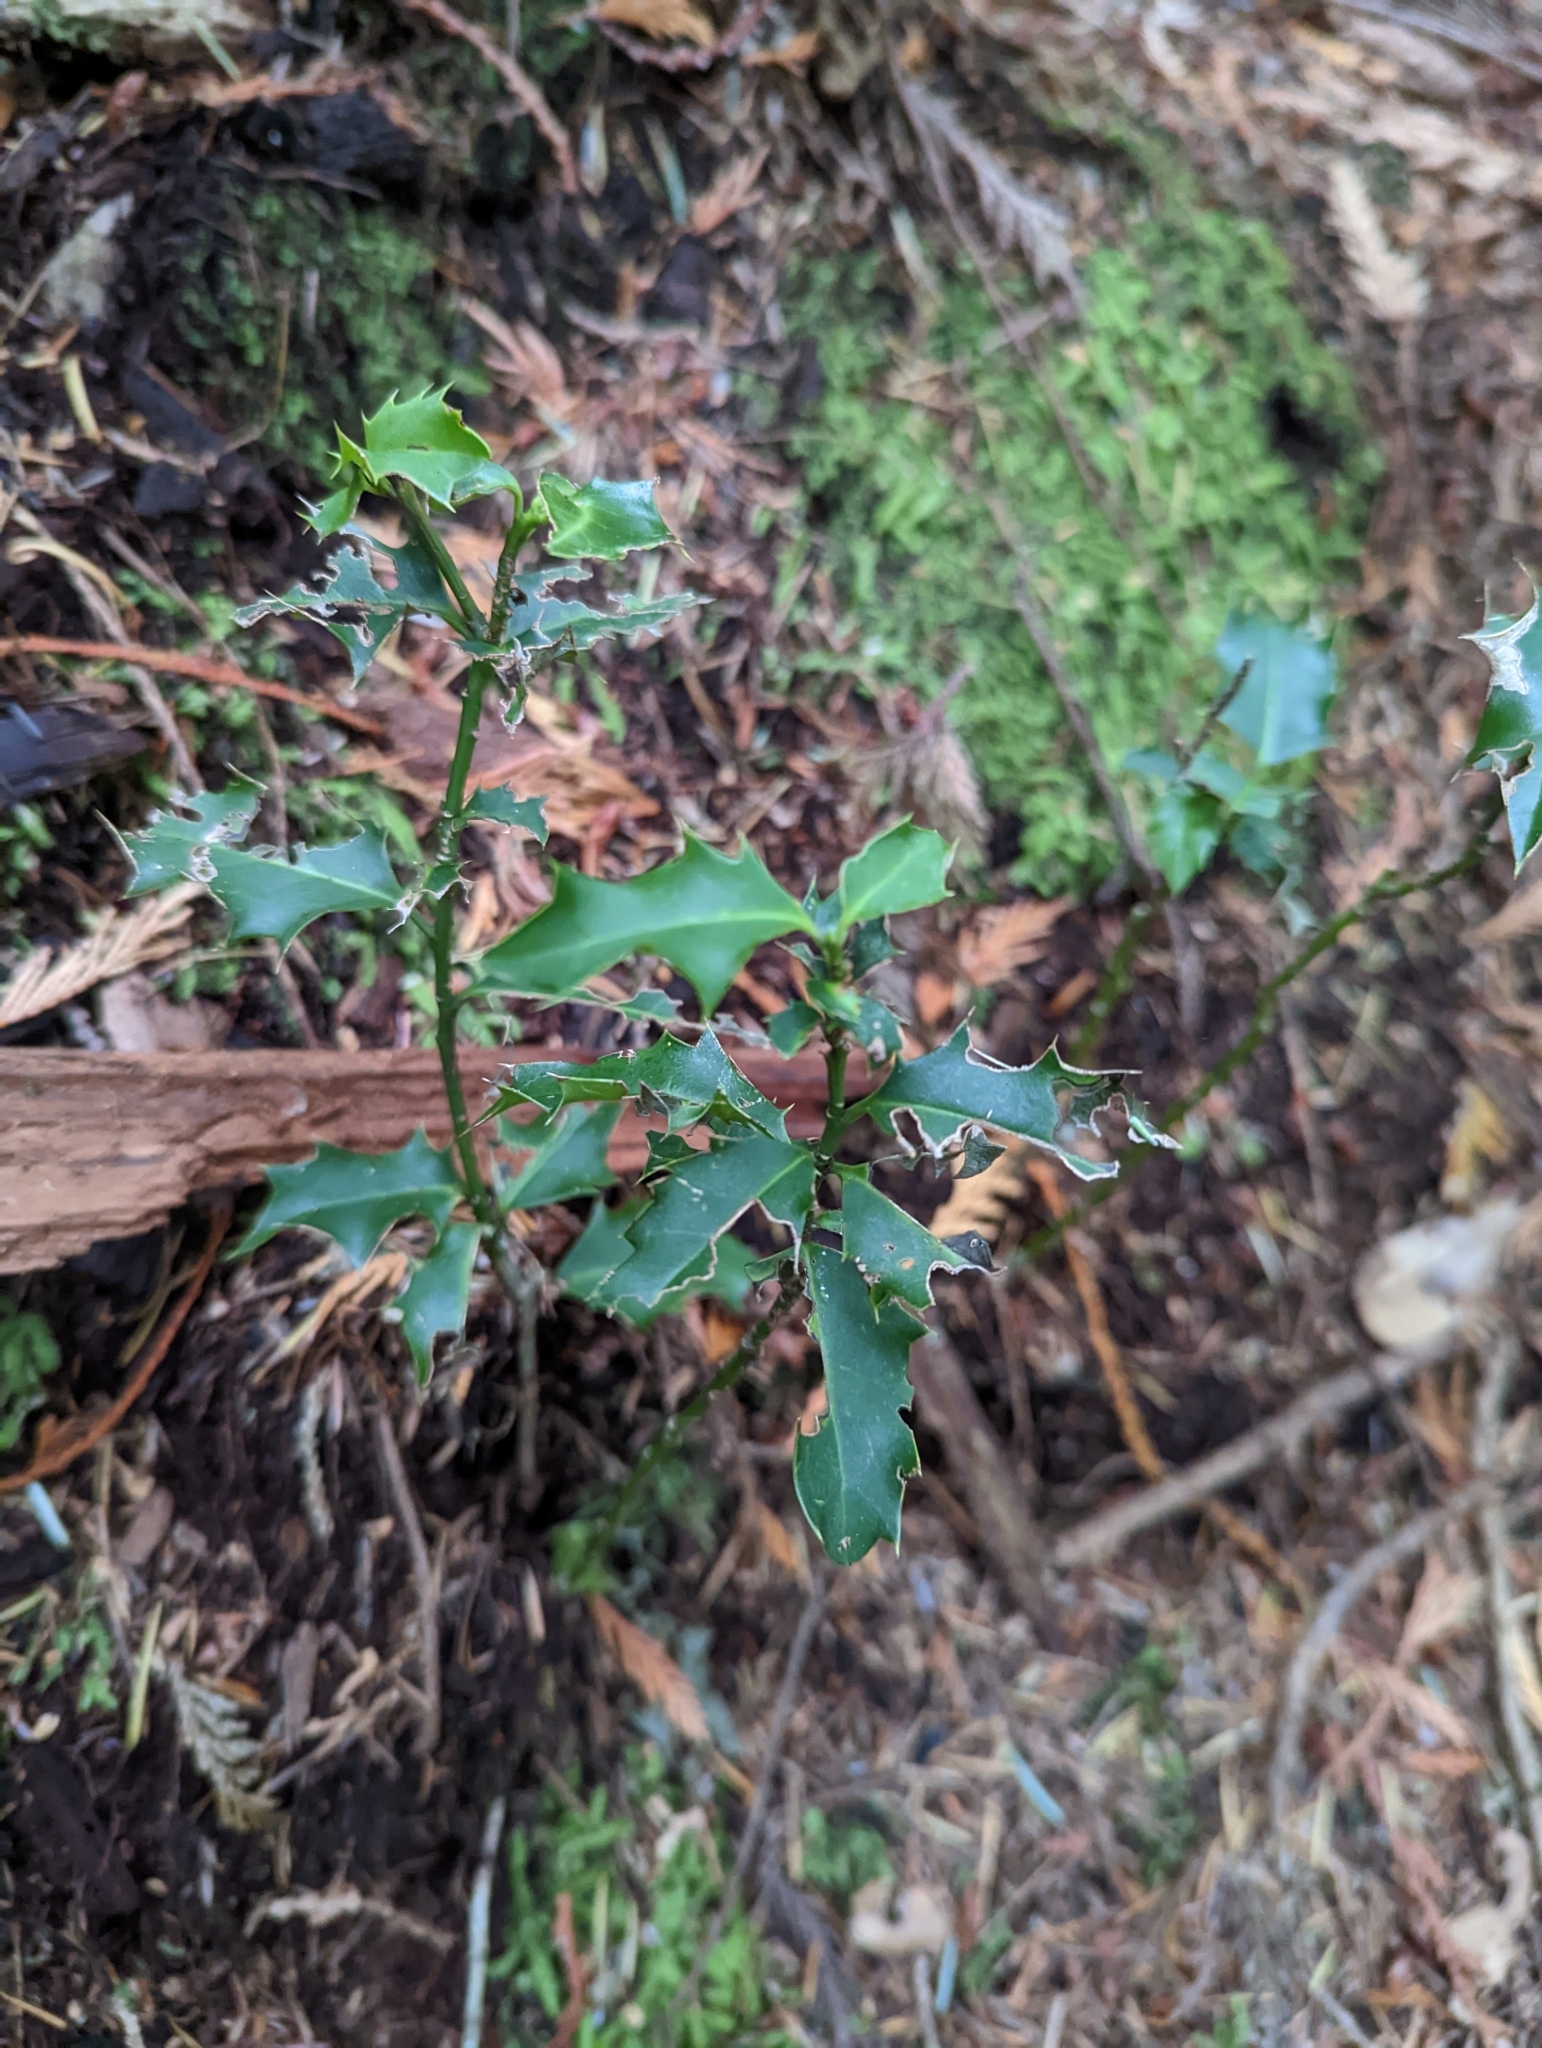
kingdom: Plantae
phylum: Tracheophyta
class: Magnoliopsida
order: Aquifoliales
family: Aquifoliaceae
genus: Ilex
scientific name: Ilex aquifolium
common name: English holly
